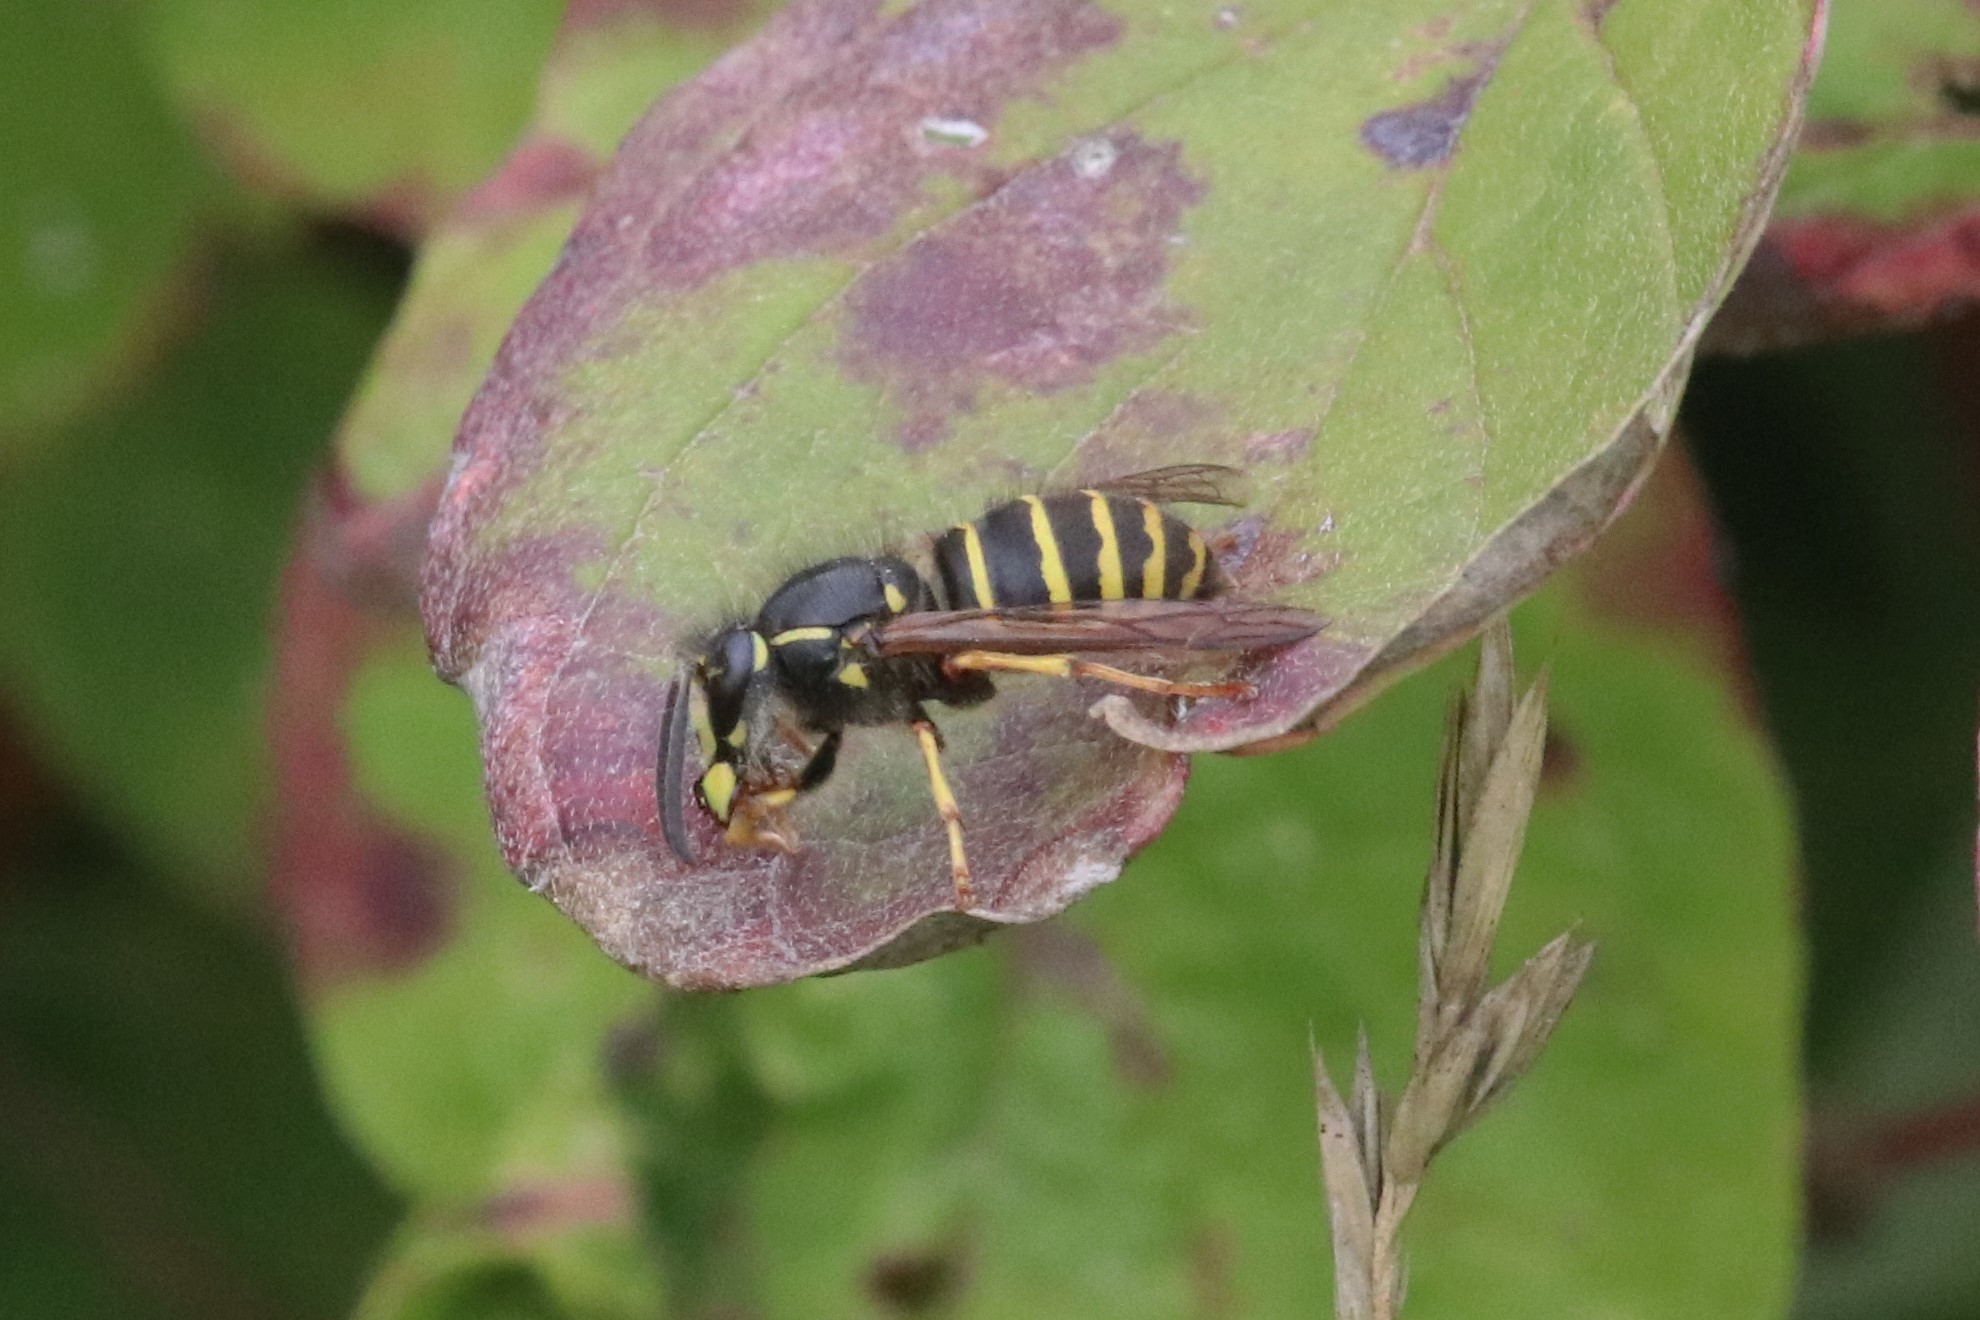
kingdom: Animalia
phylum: Arthropoda
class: Insecta
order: Hymenoptera
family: Vespidae
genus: Dolichovespula
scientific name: Dolichovespula norvegicoides
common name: Northern aerial yellowjacket
